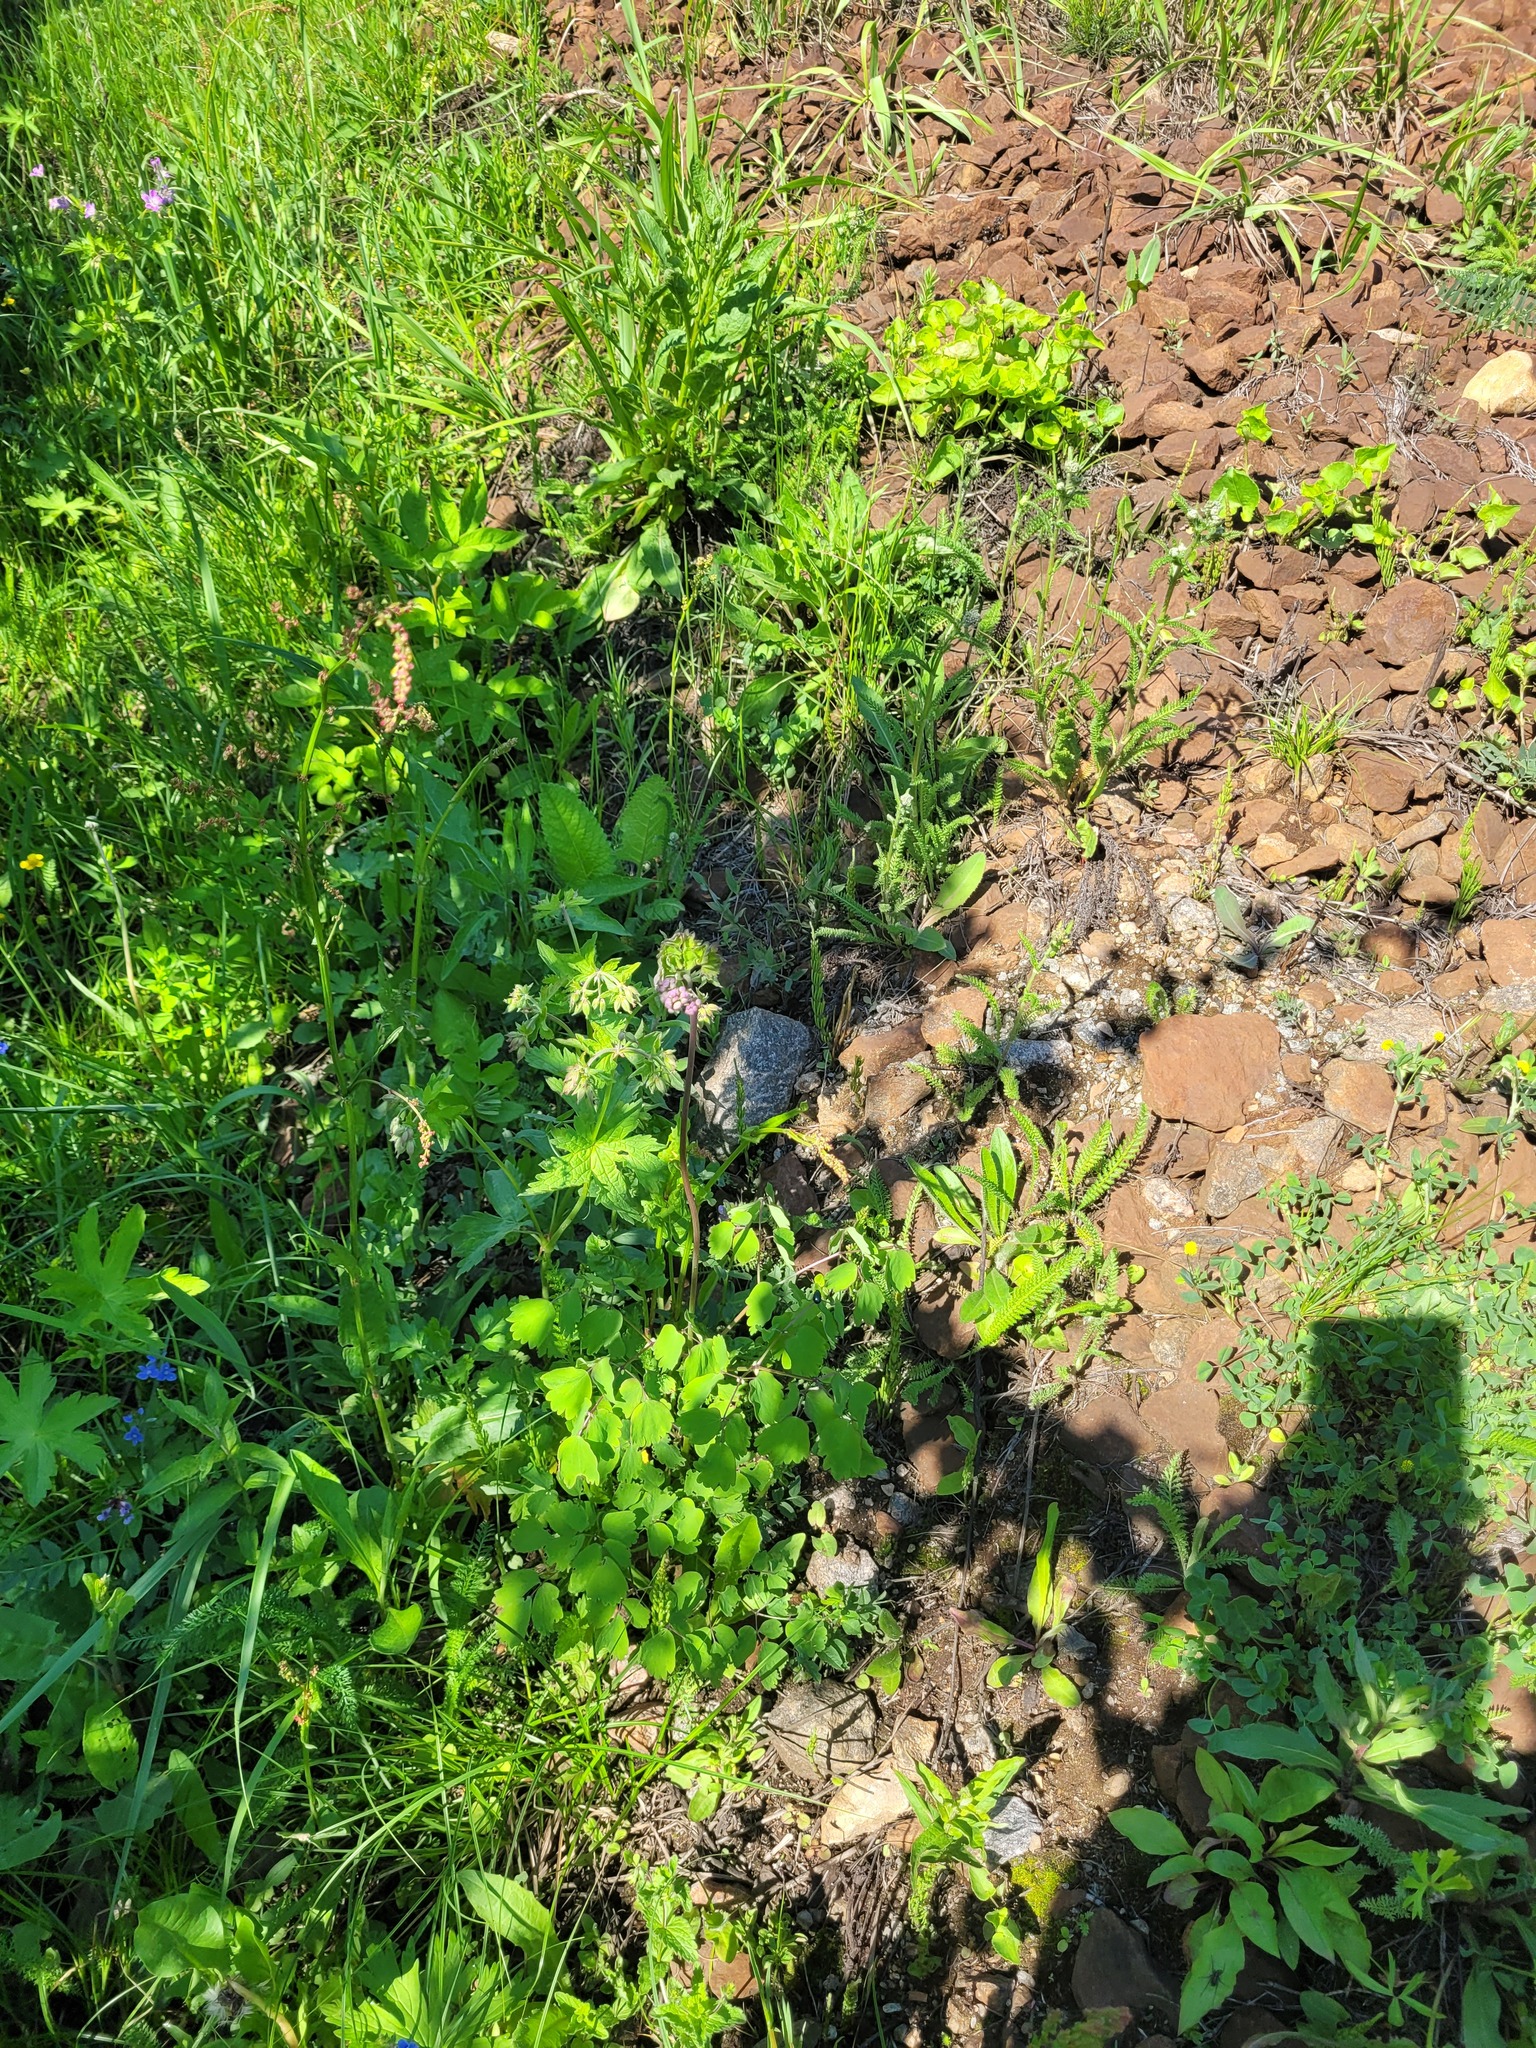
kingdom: Plantae
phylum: Tracheophyta
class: Magnoliopsida
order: Ranunculales
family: Ranunculaceae
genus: Thalictrum
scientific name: Thalictrum aquilegiifolium
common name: French meadow-rue
